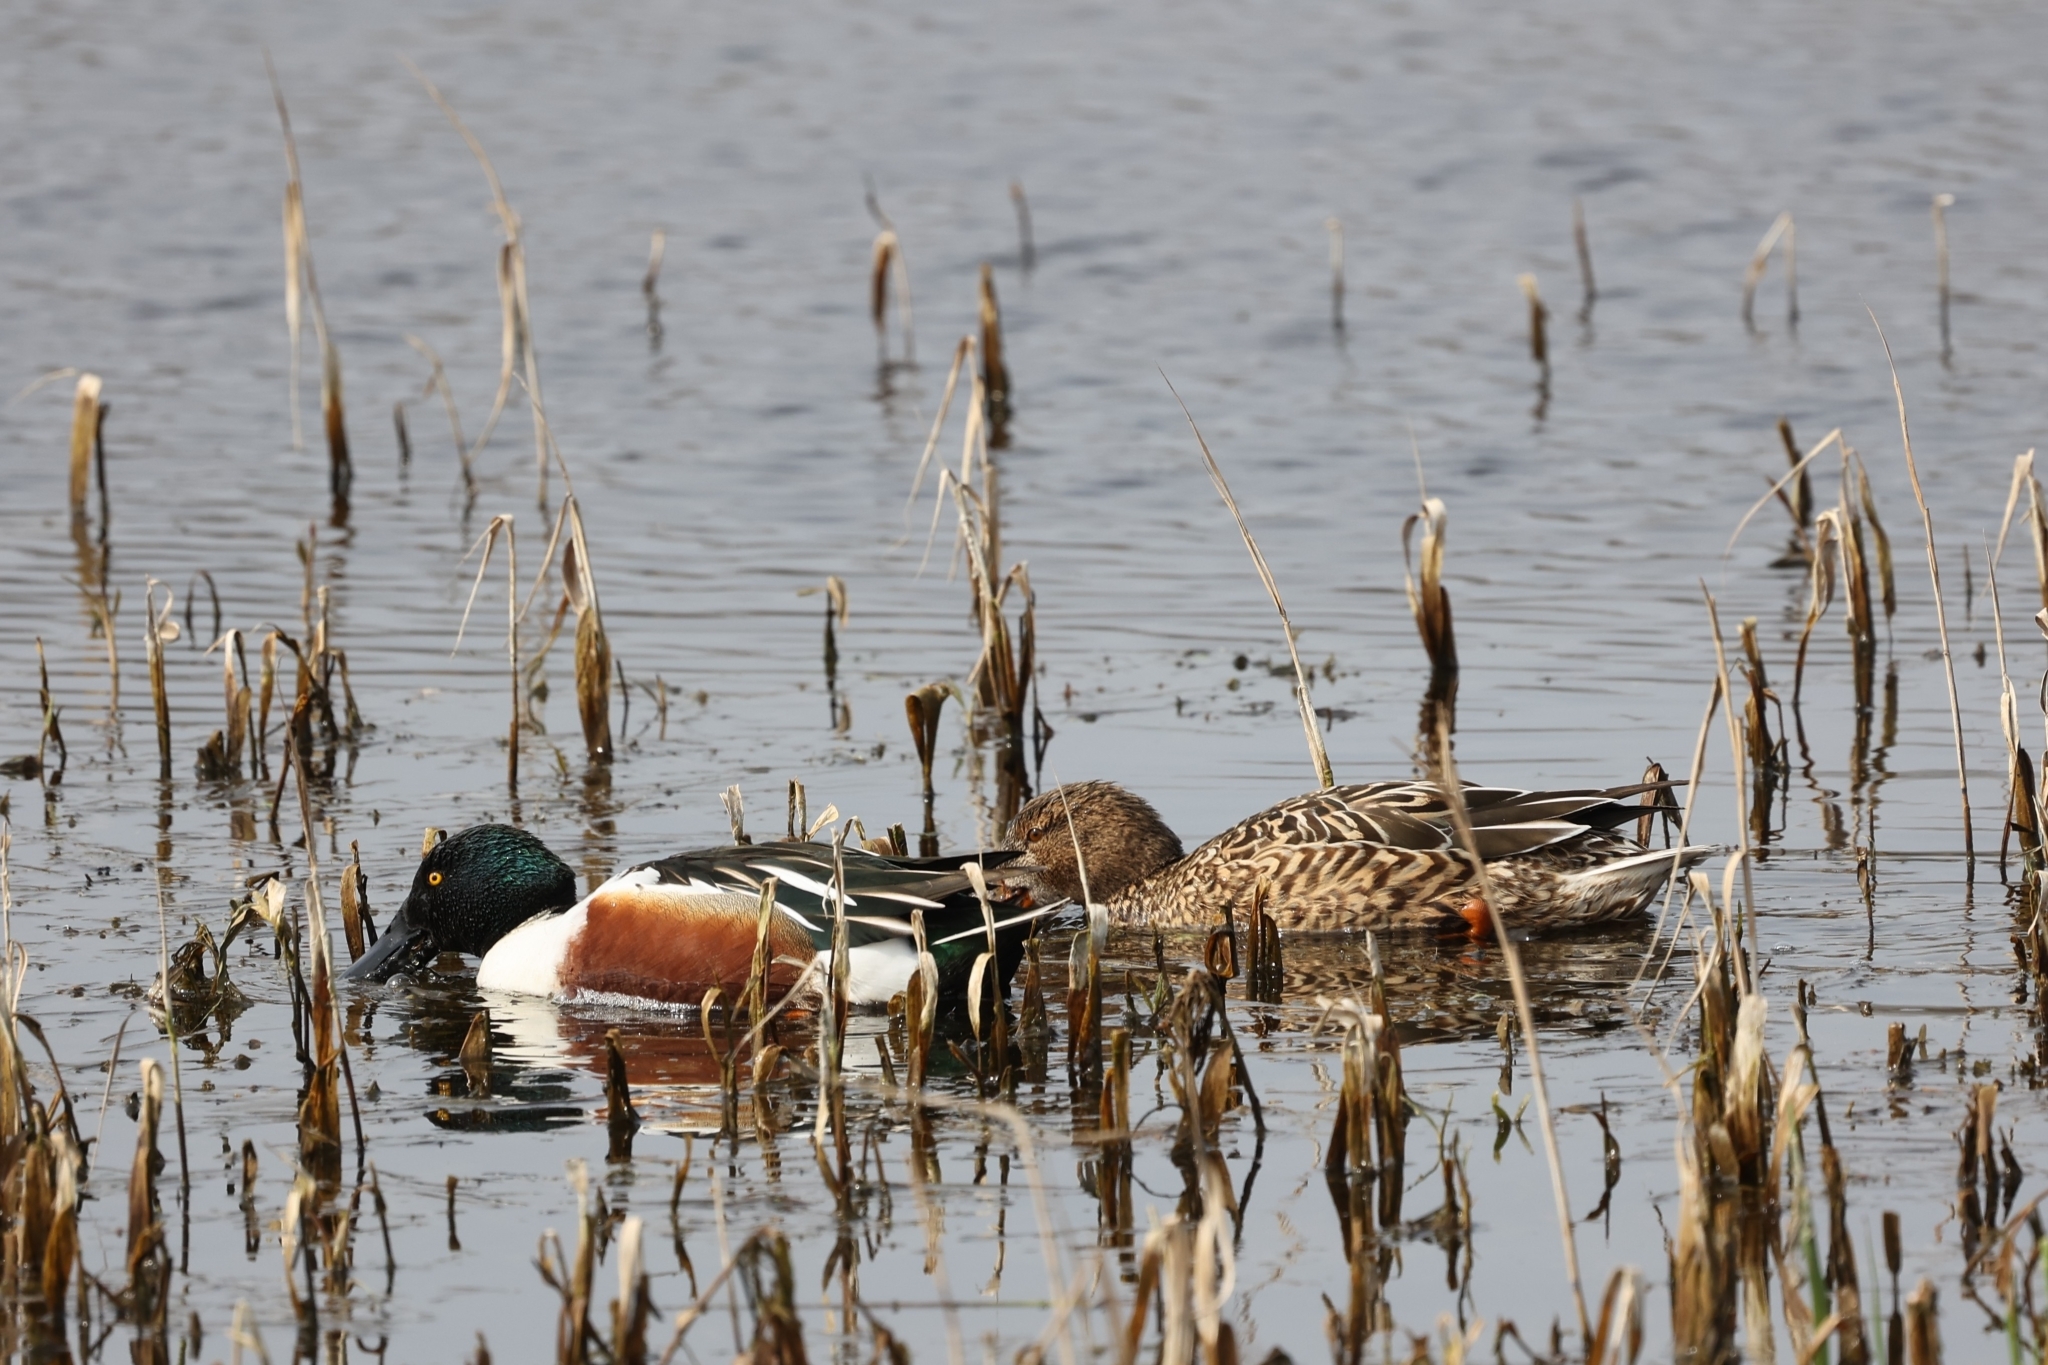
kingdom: Animalia
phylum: Chordata
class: Aves
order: Anseriformes
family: Anatidae
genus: Spatula
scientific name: Spatula clypeata
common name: Northern shoveler
